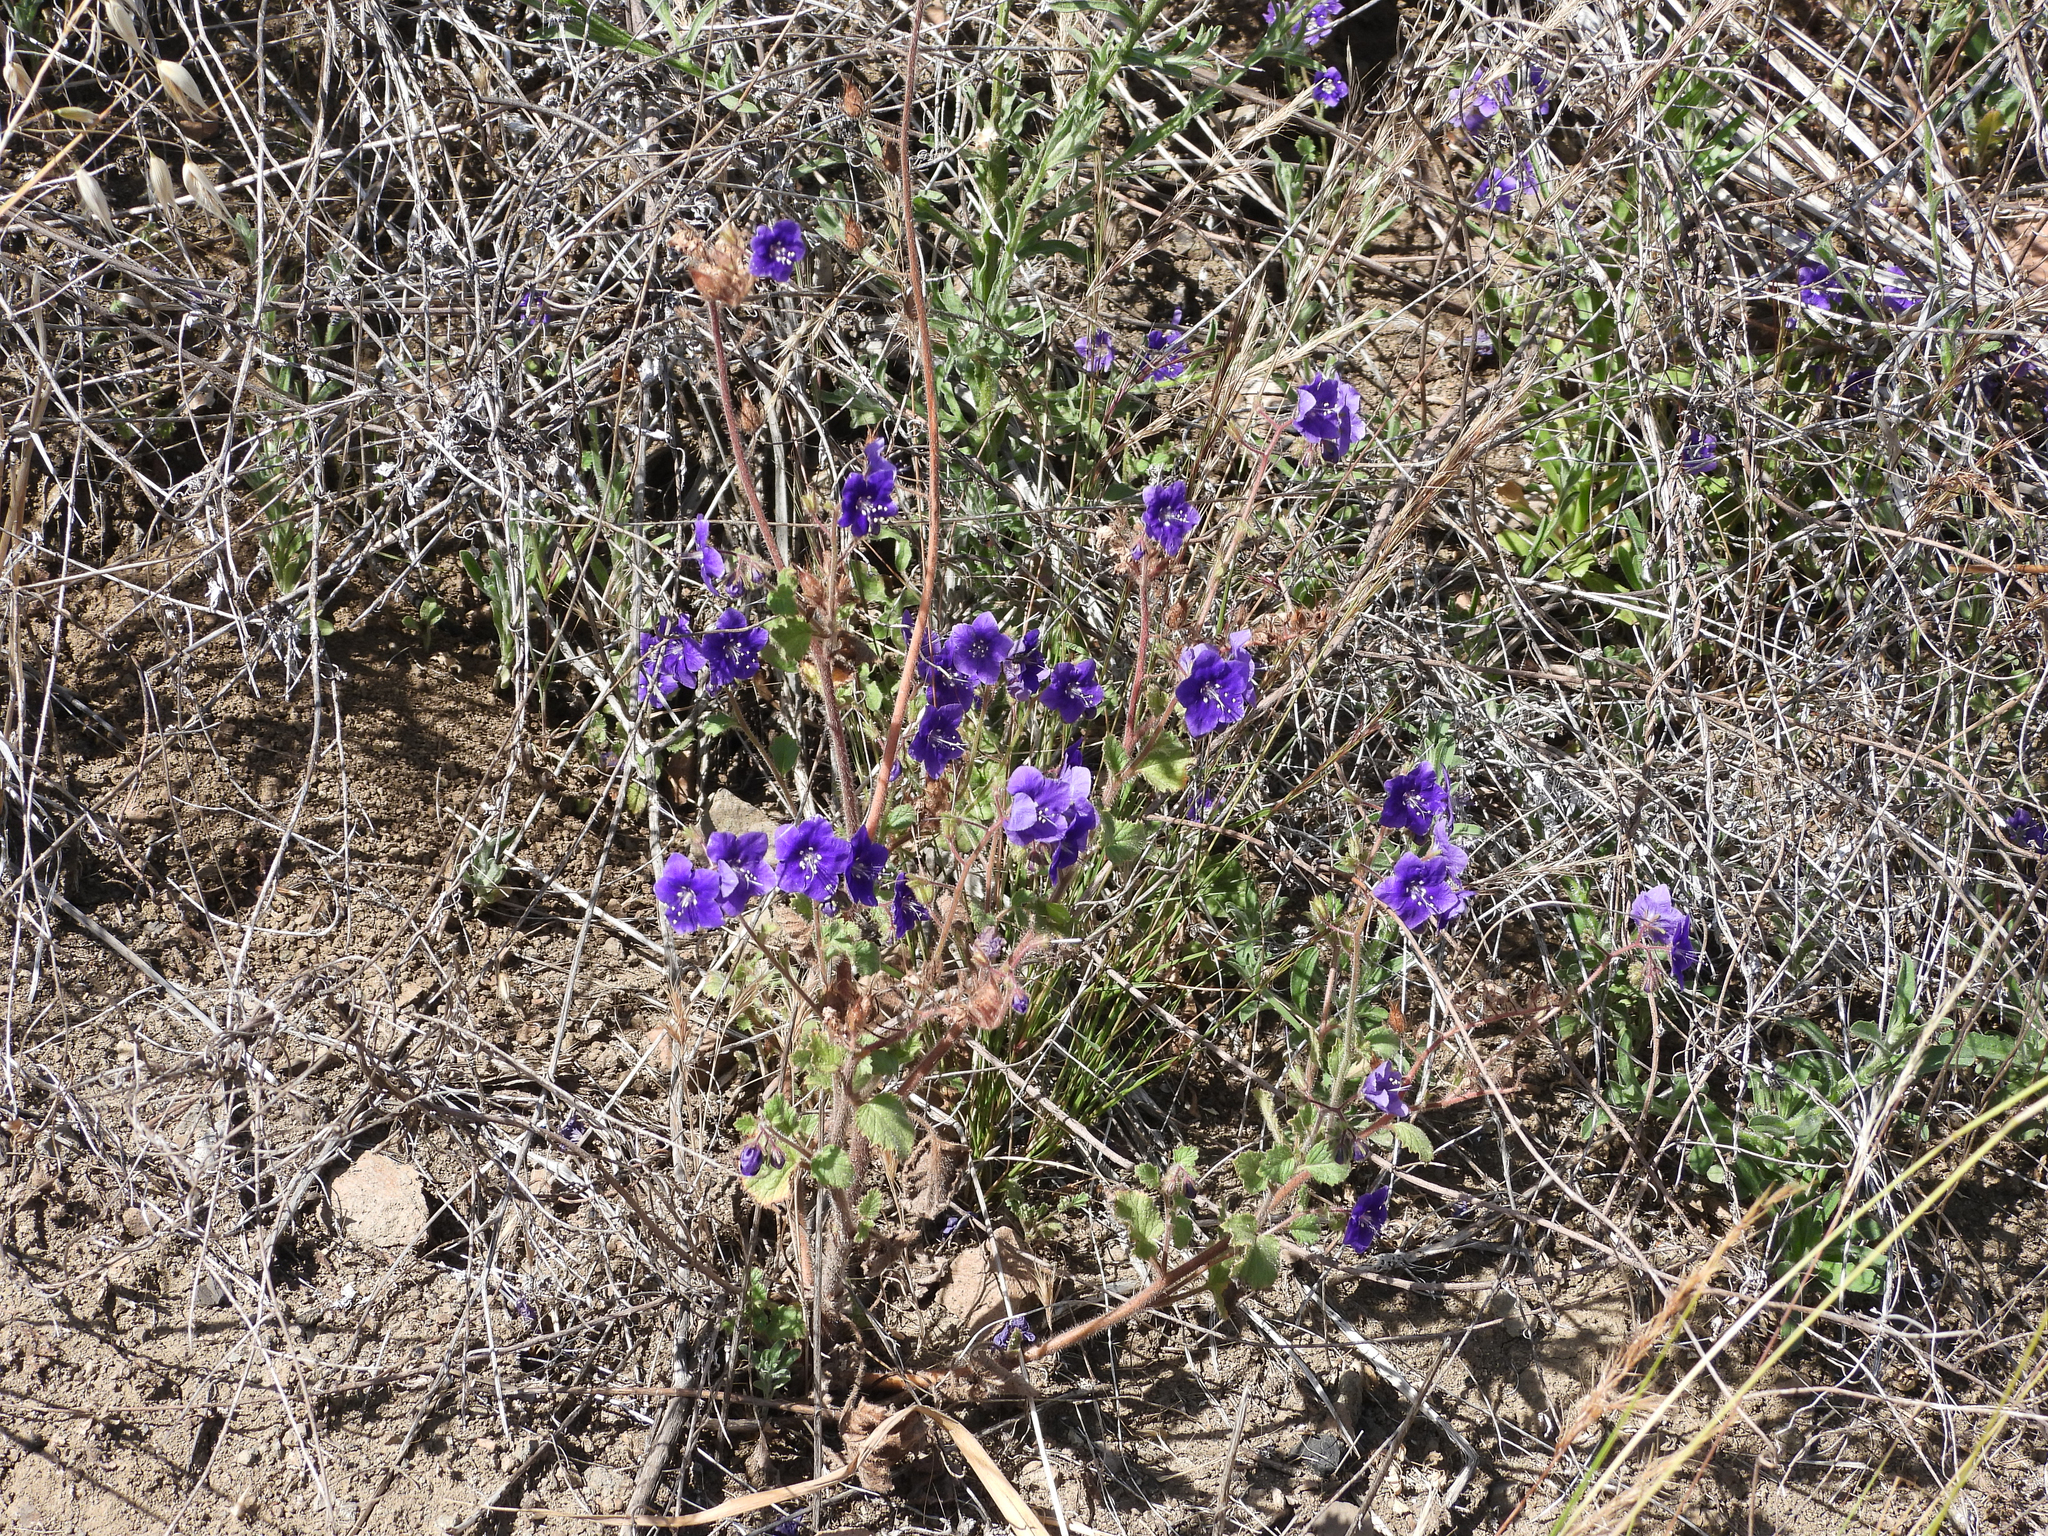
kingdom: Plantae
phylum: Tracheophyta
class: Magnoliopsida
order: Boraginales
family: Hydrophyllaceae
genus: Phacelia
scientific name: Phacelia parryi
